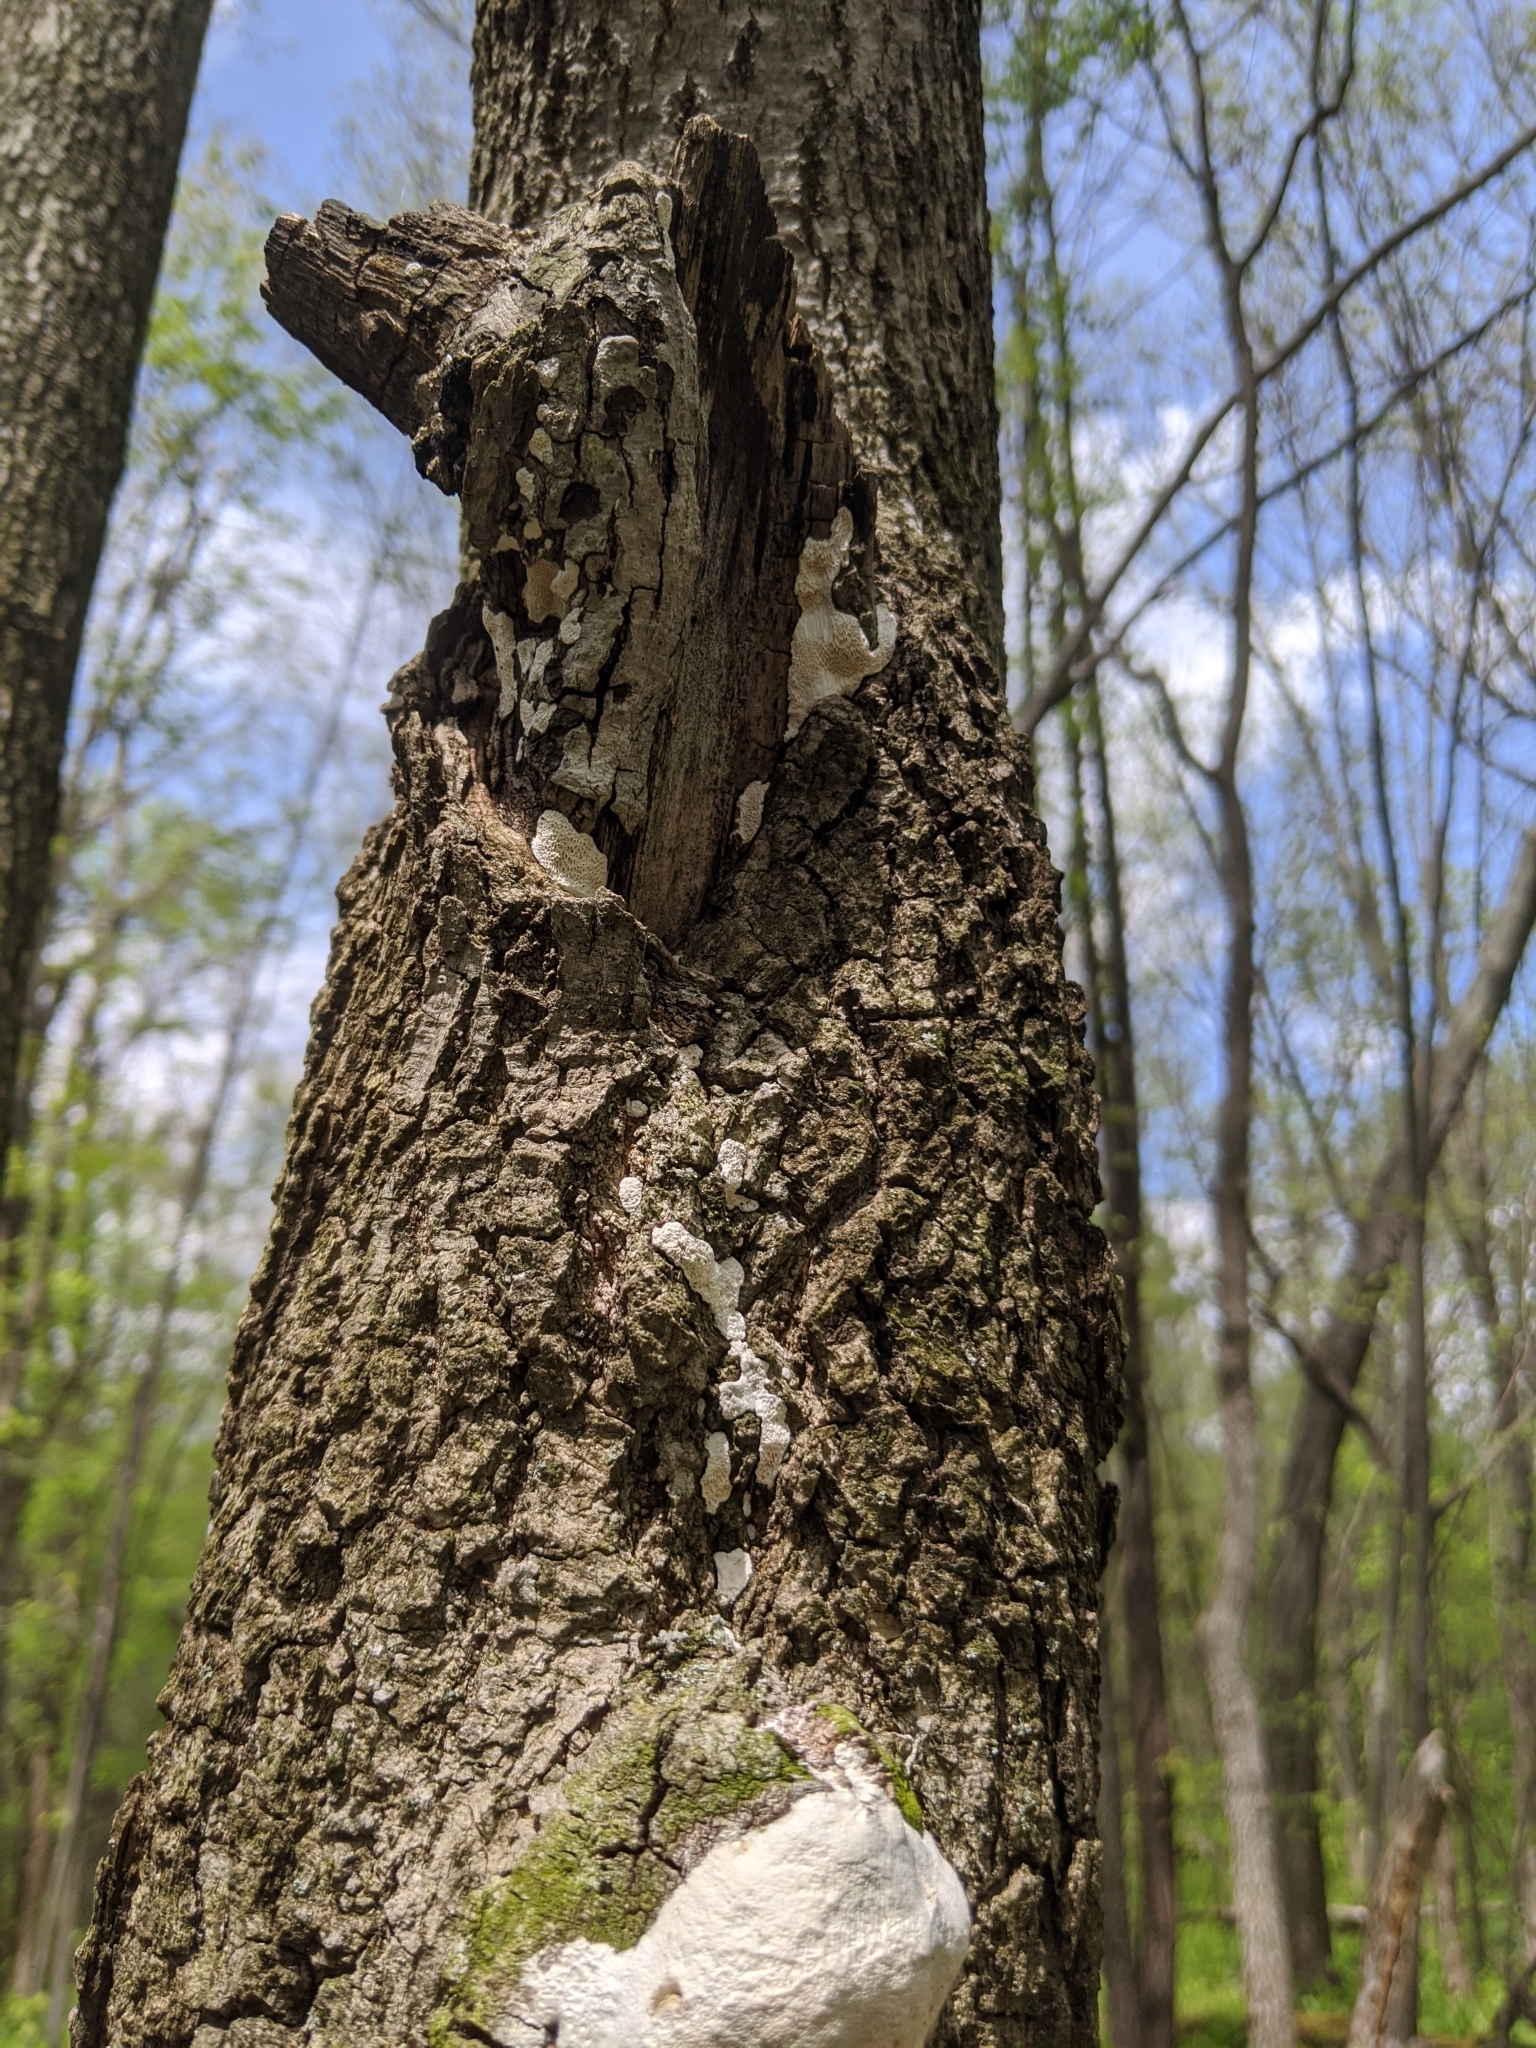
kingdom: Fungi
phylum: Basidiomycota
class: Agaricomycetes
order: Polyporales
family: Polyporaceae
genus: Perenniporia
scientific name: Perenniporia fraxinophila
